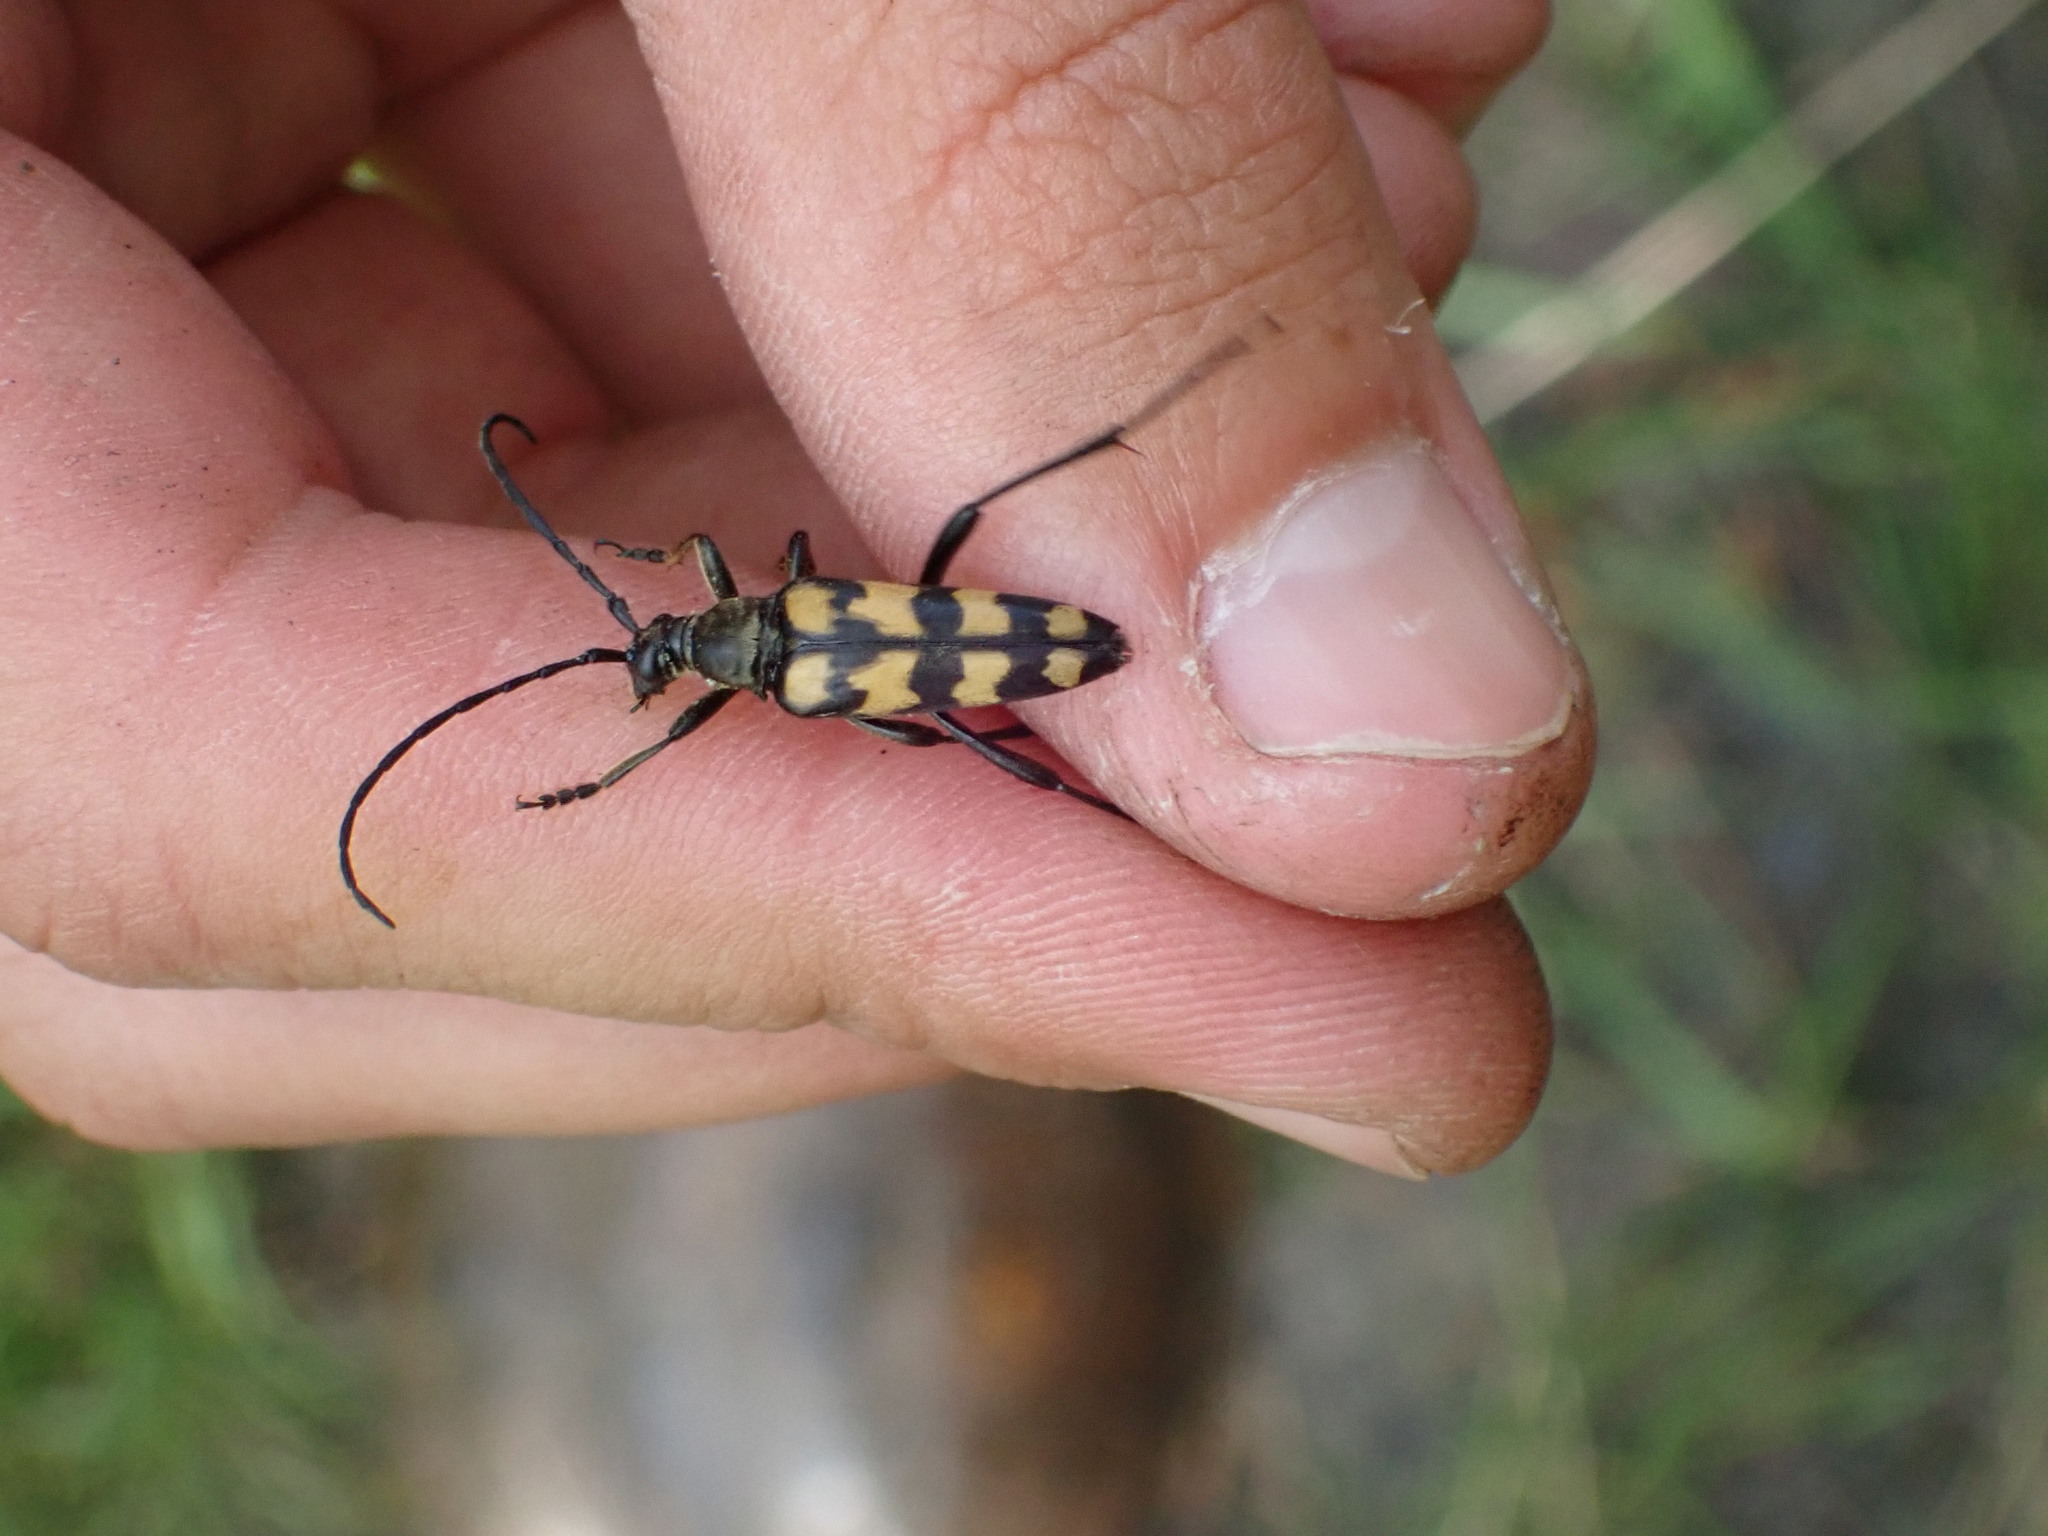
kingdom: Animalia
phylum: Arthropoda
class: Insecta
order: Coleoptera
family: Cerambycidae
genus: Leptura
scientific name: Leptura quadrifasciata
